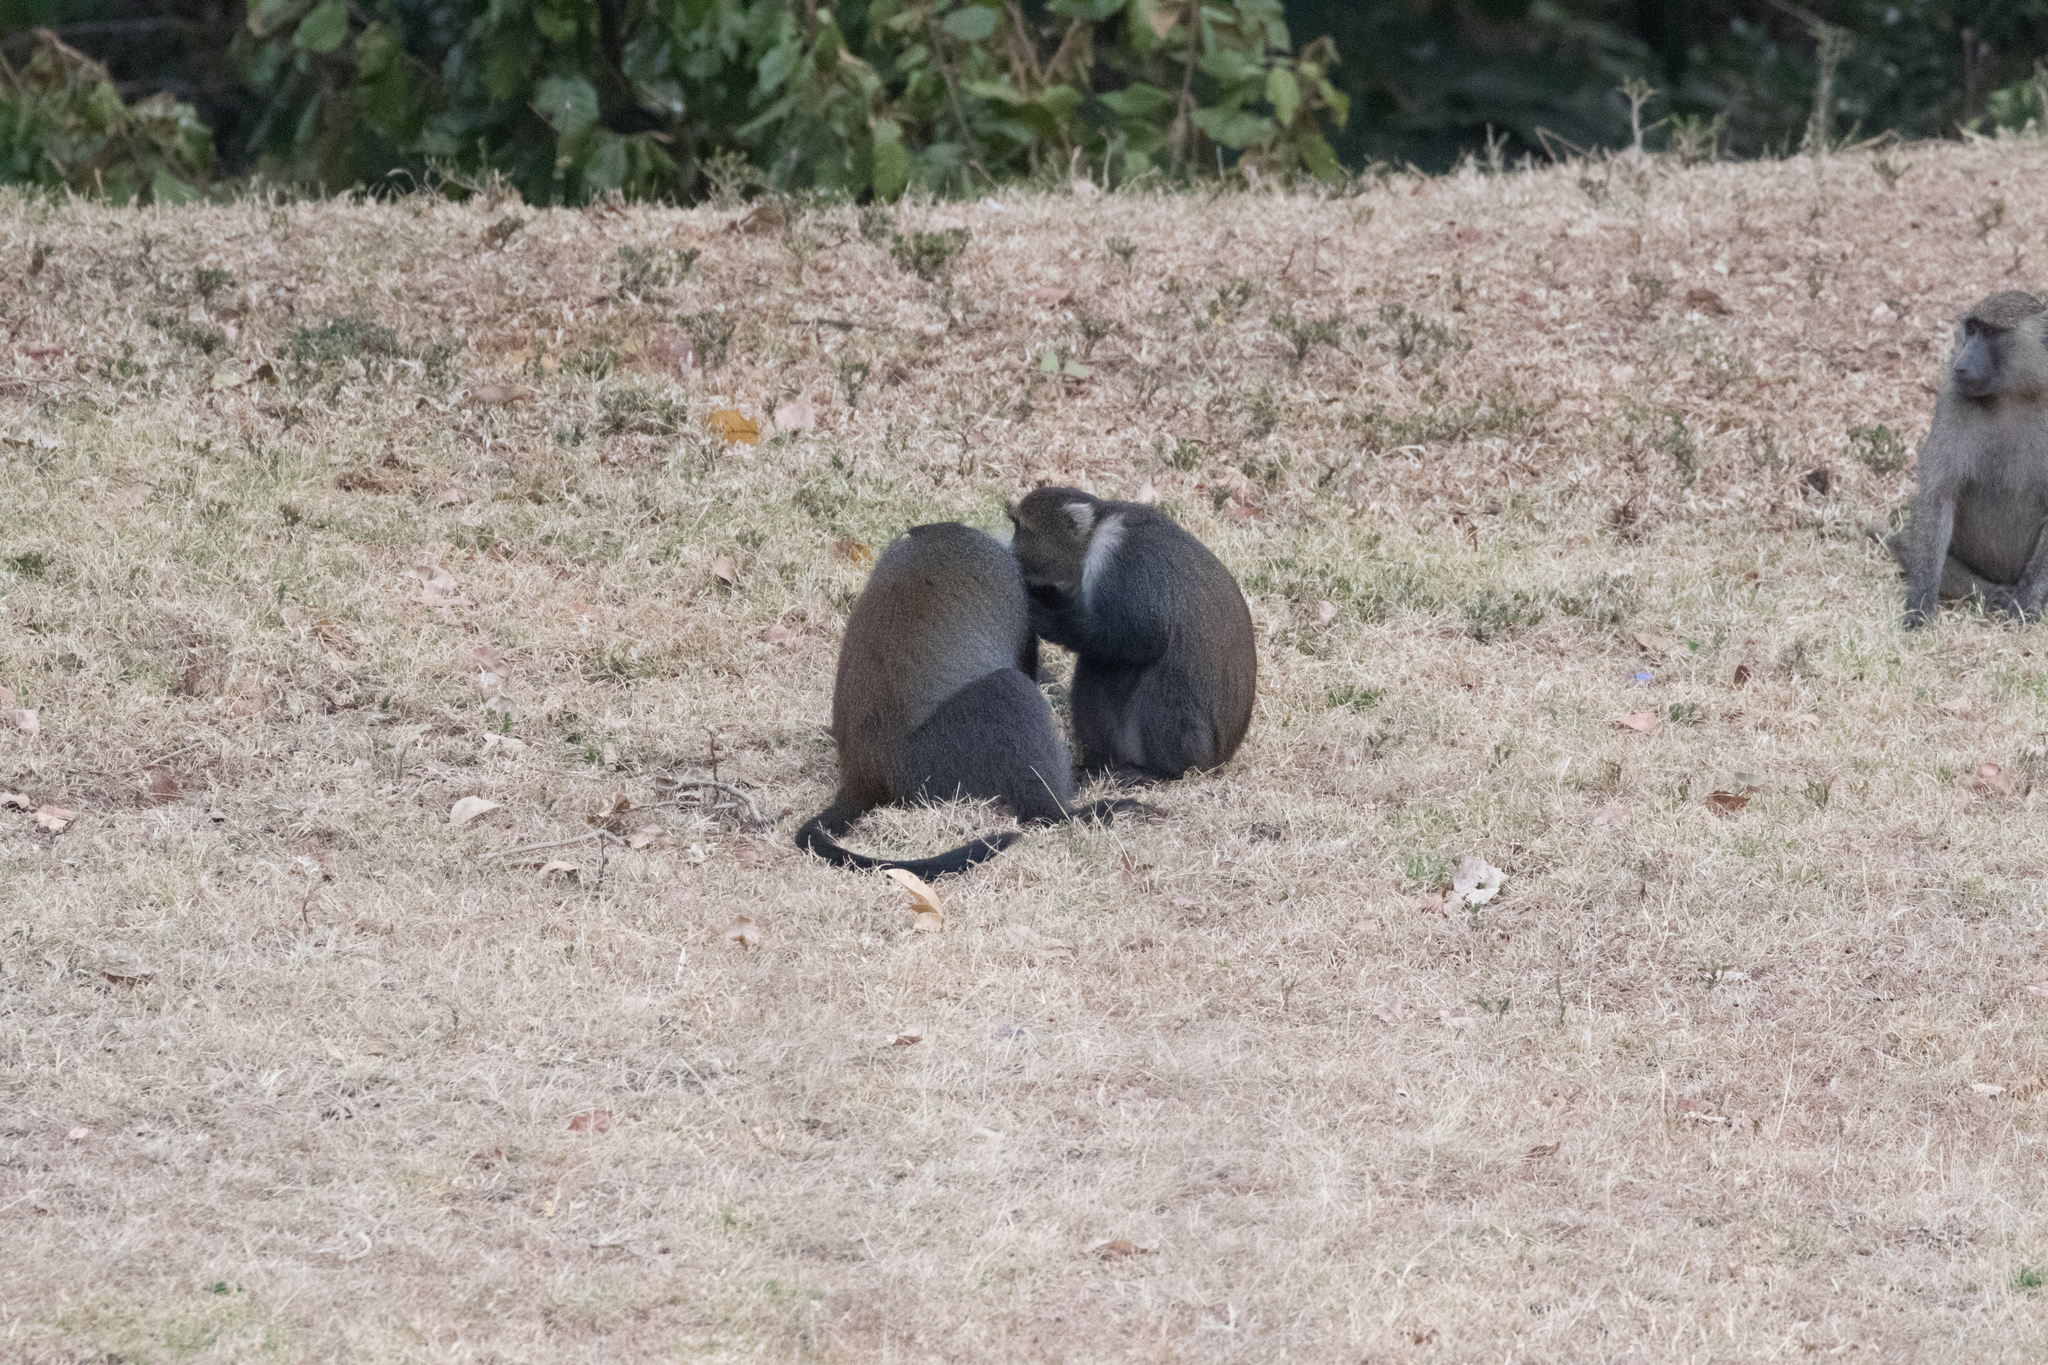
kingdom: Animalia
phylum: Chordata
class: Mammalia
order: Primates
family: Cercopithecidae
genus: Cercopithecus
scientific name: Cercopithecus mitis
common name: Blue monkey
